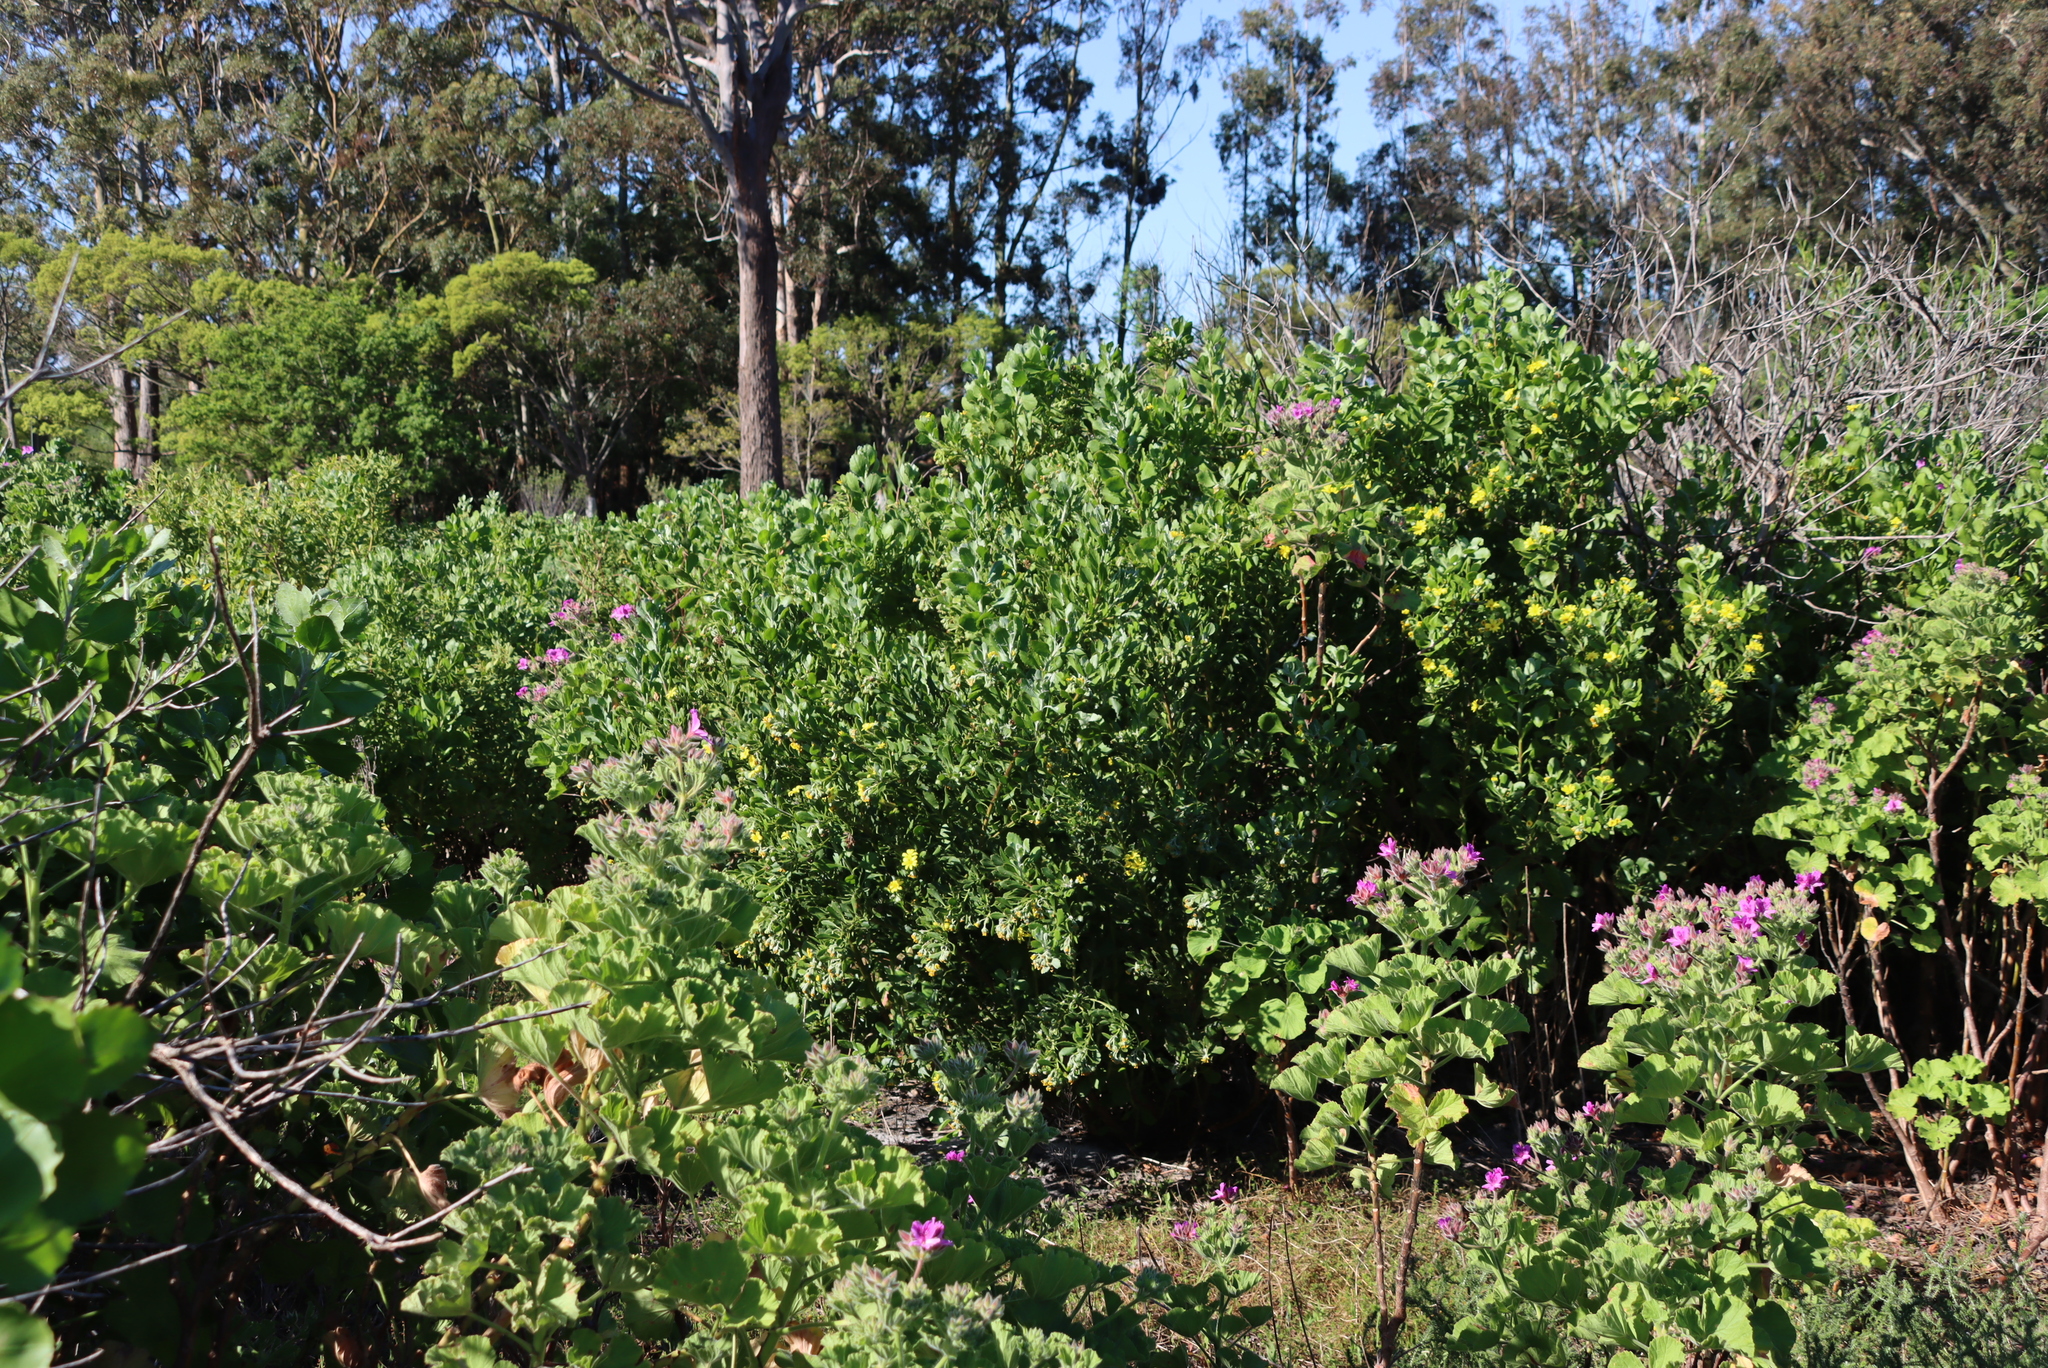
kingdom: Plantae
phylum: Tracheophyta
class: Magnoliopsida
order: Asterales
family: Asteraceae
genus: Osteospermum
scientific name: Osteospermum moniliferum
